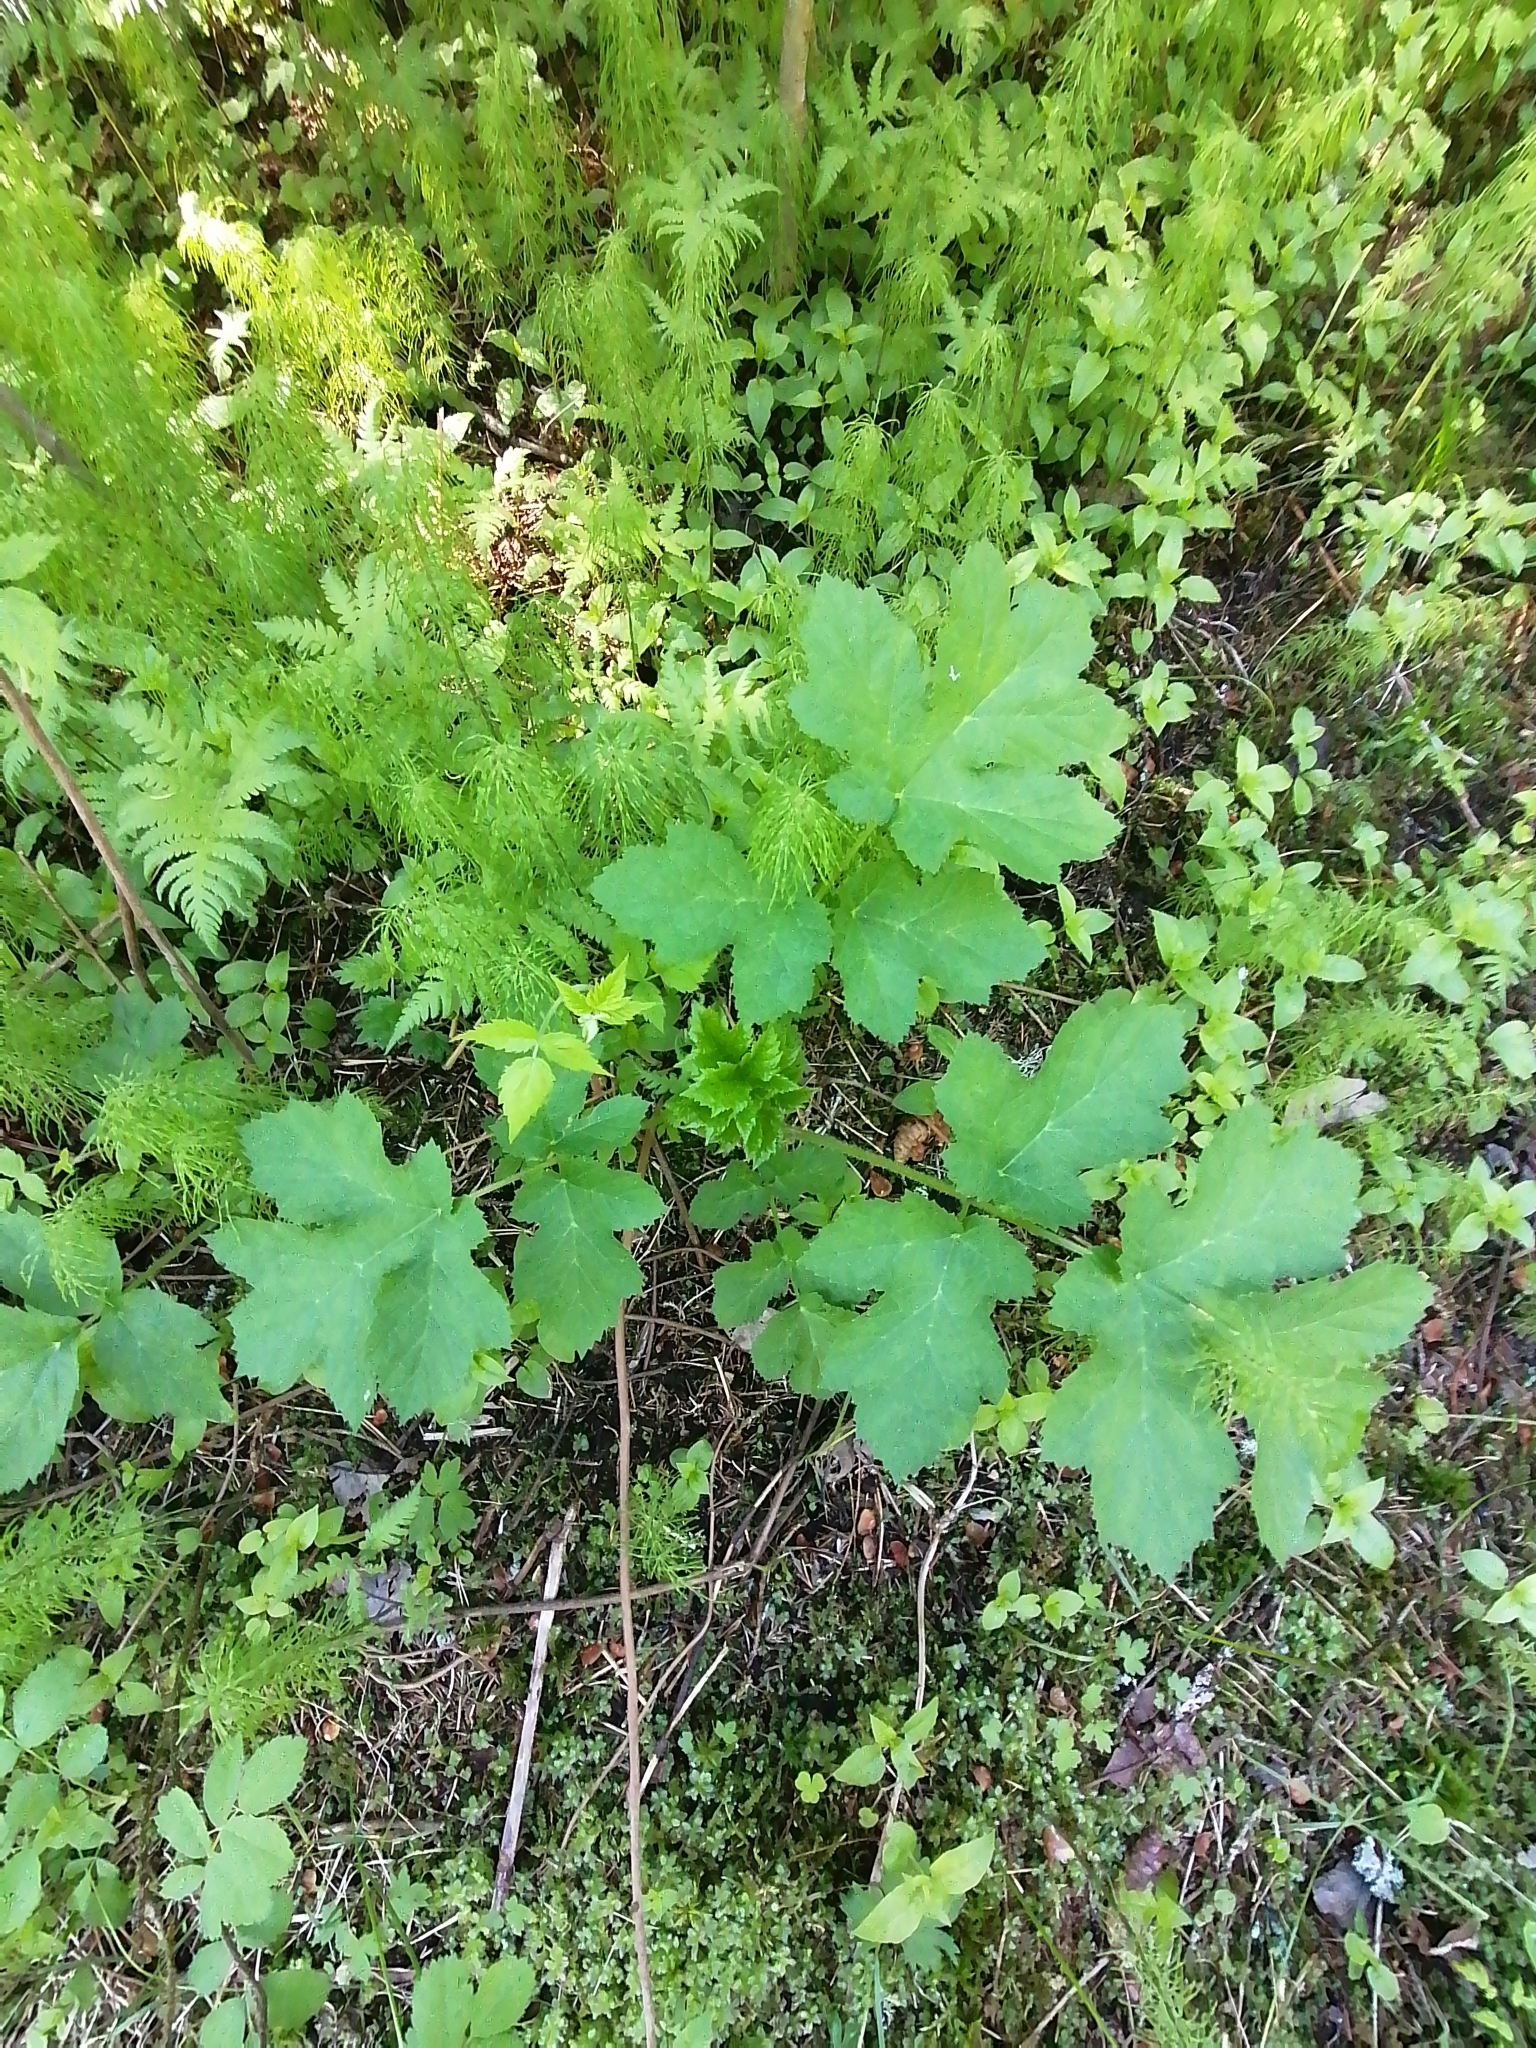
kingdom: Plantae
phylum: Tracheophyta
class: Magnoliopsida
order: Apiales
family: Apiaceae
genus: Heracleum
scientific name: Heracleum sphondylium
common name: Hogweed
